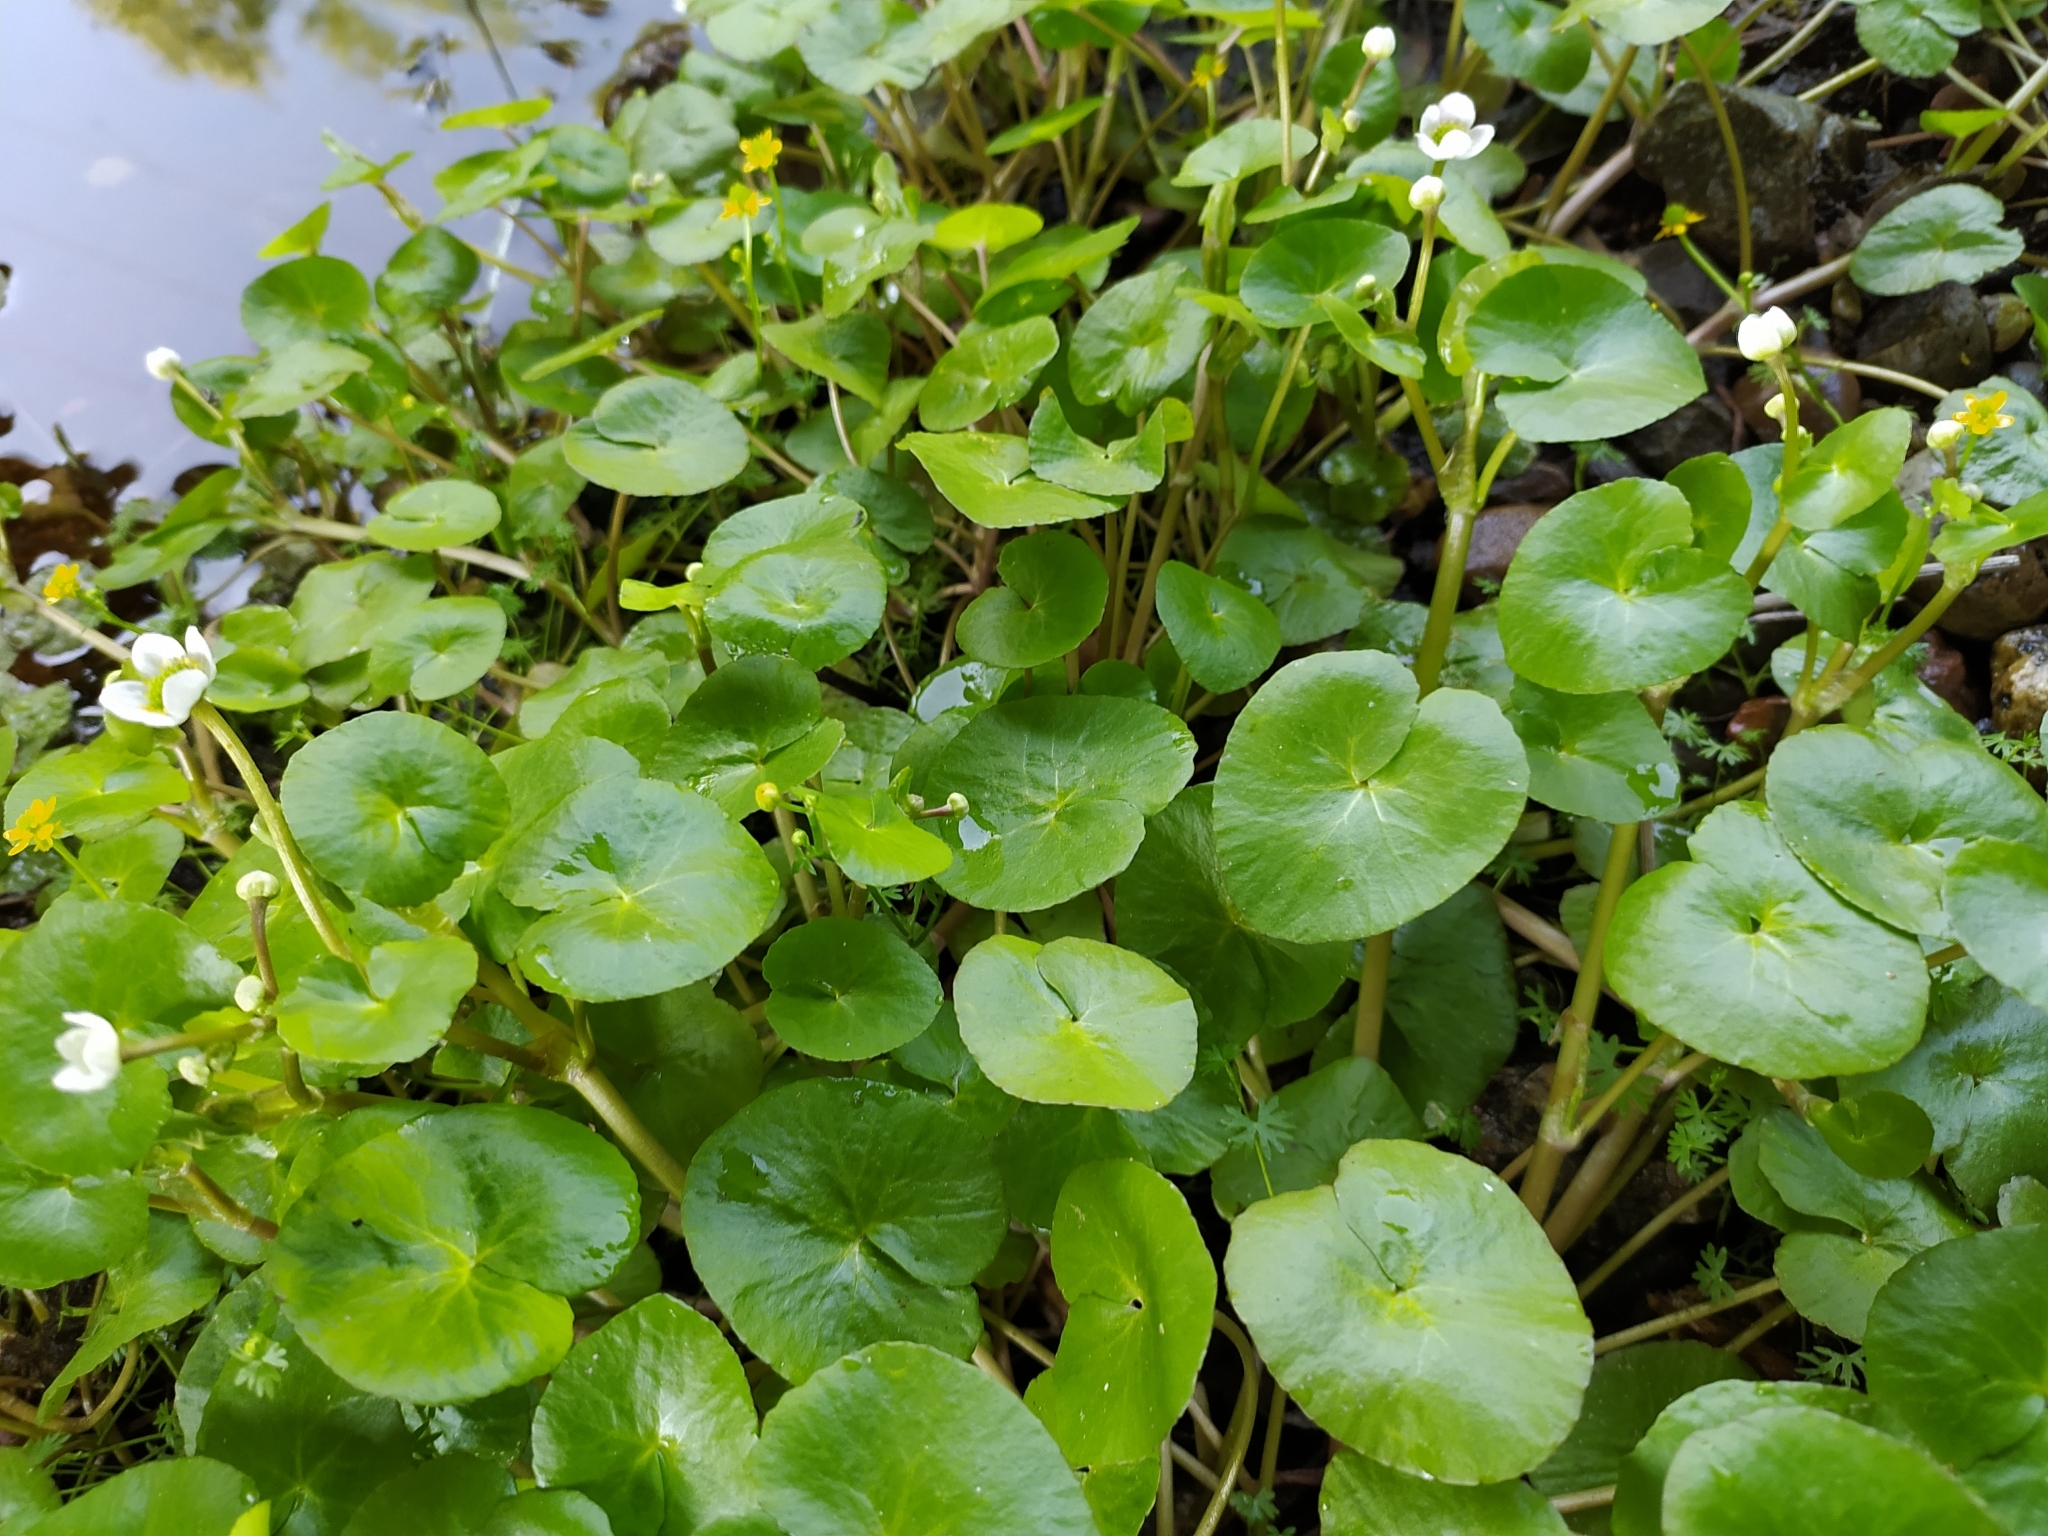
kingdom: Plantae
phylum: Tracheophyta
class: Magnoliopsida
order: Ranunculales
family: Ranunculaceae
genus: Caltha
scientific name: Caltha natans
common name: Floating marsh marigold
